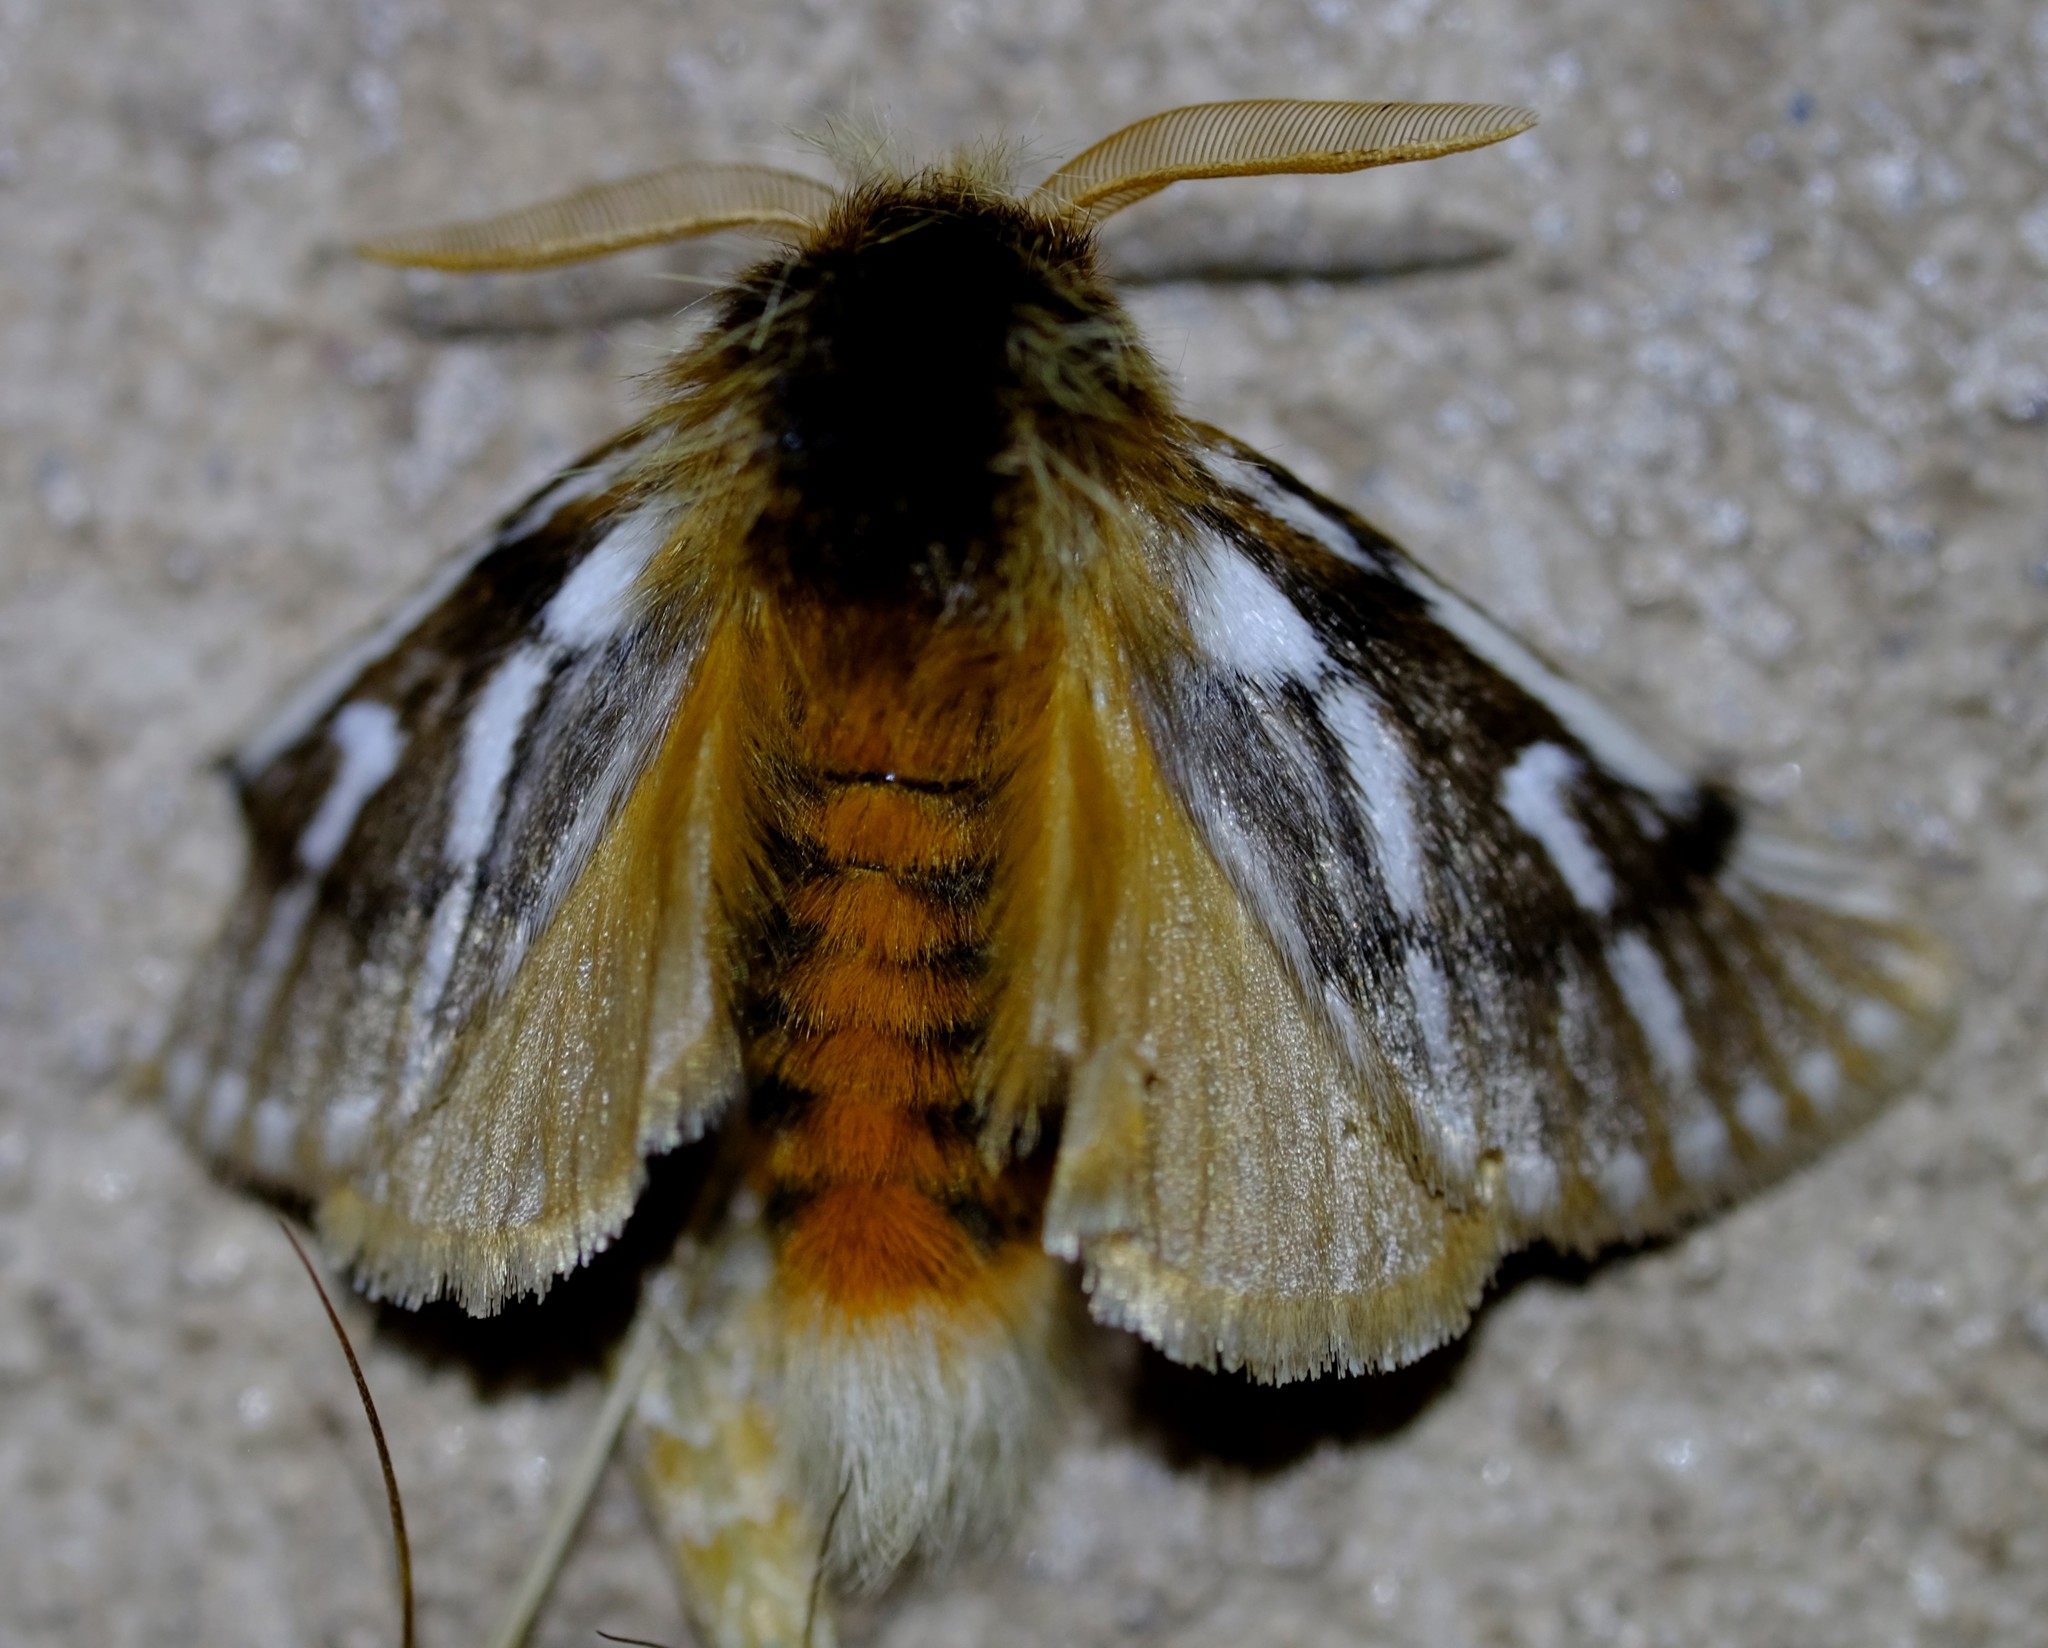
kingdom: Animalia
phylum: Arthropoda
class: Insecta
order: Lepidoptera
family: Notodontidae
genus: Ochrogaster
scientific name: Ochrogaster lunifer
